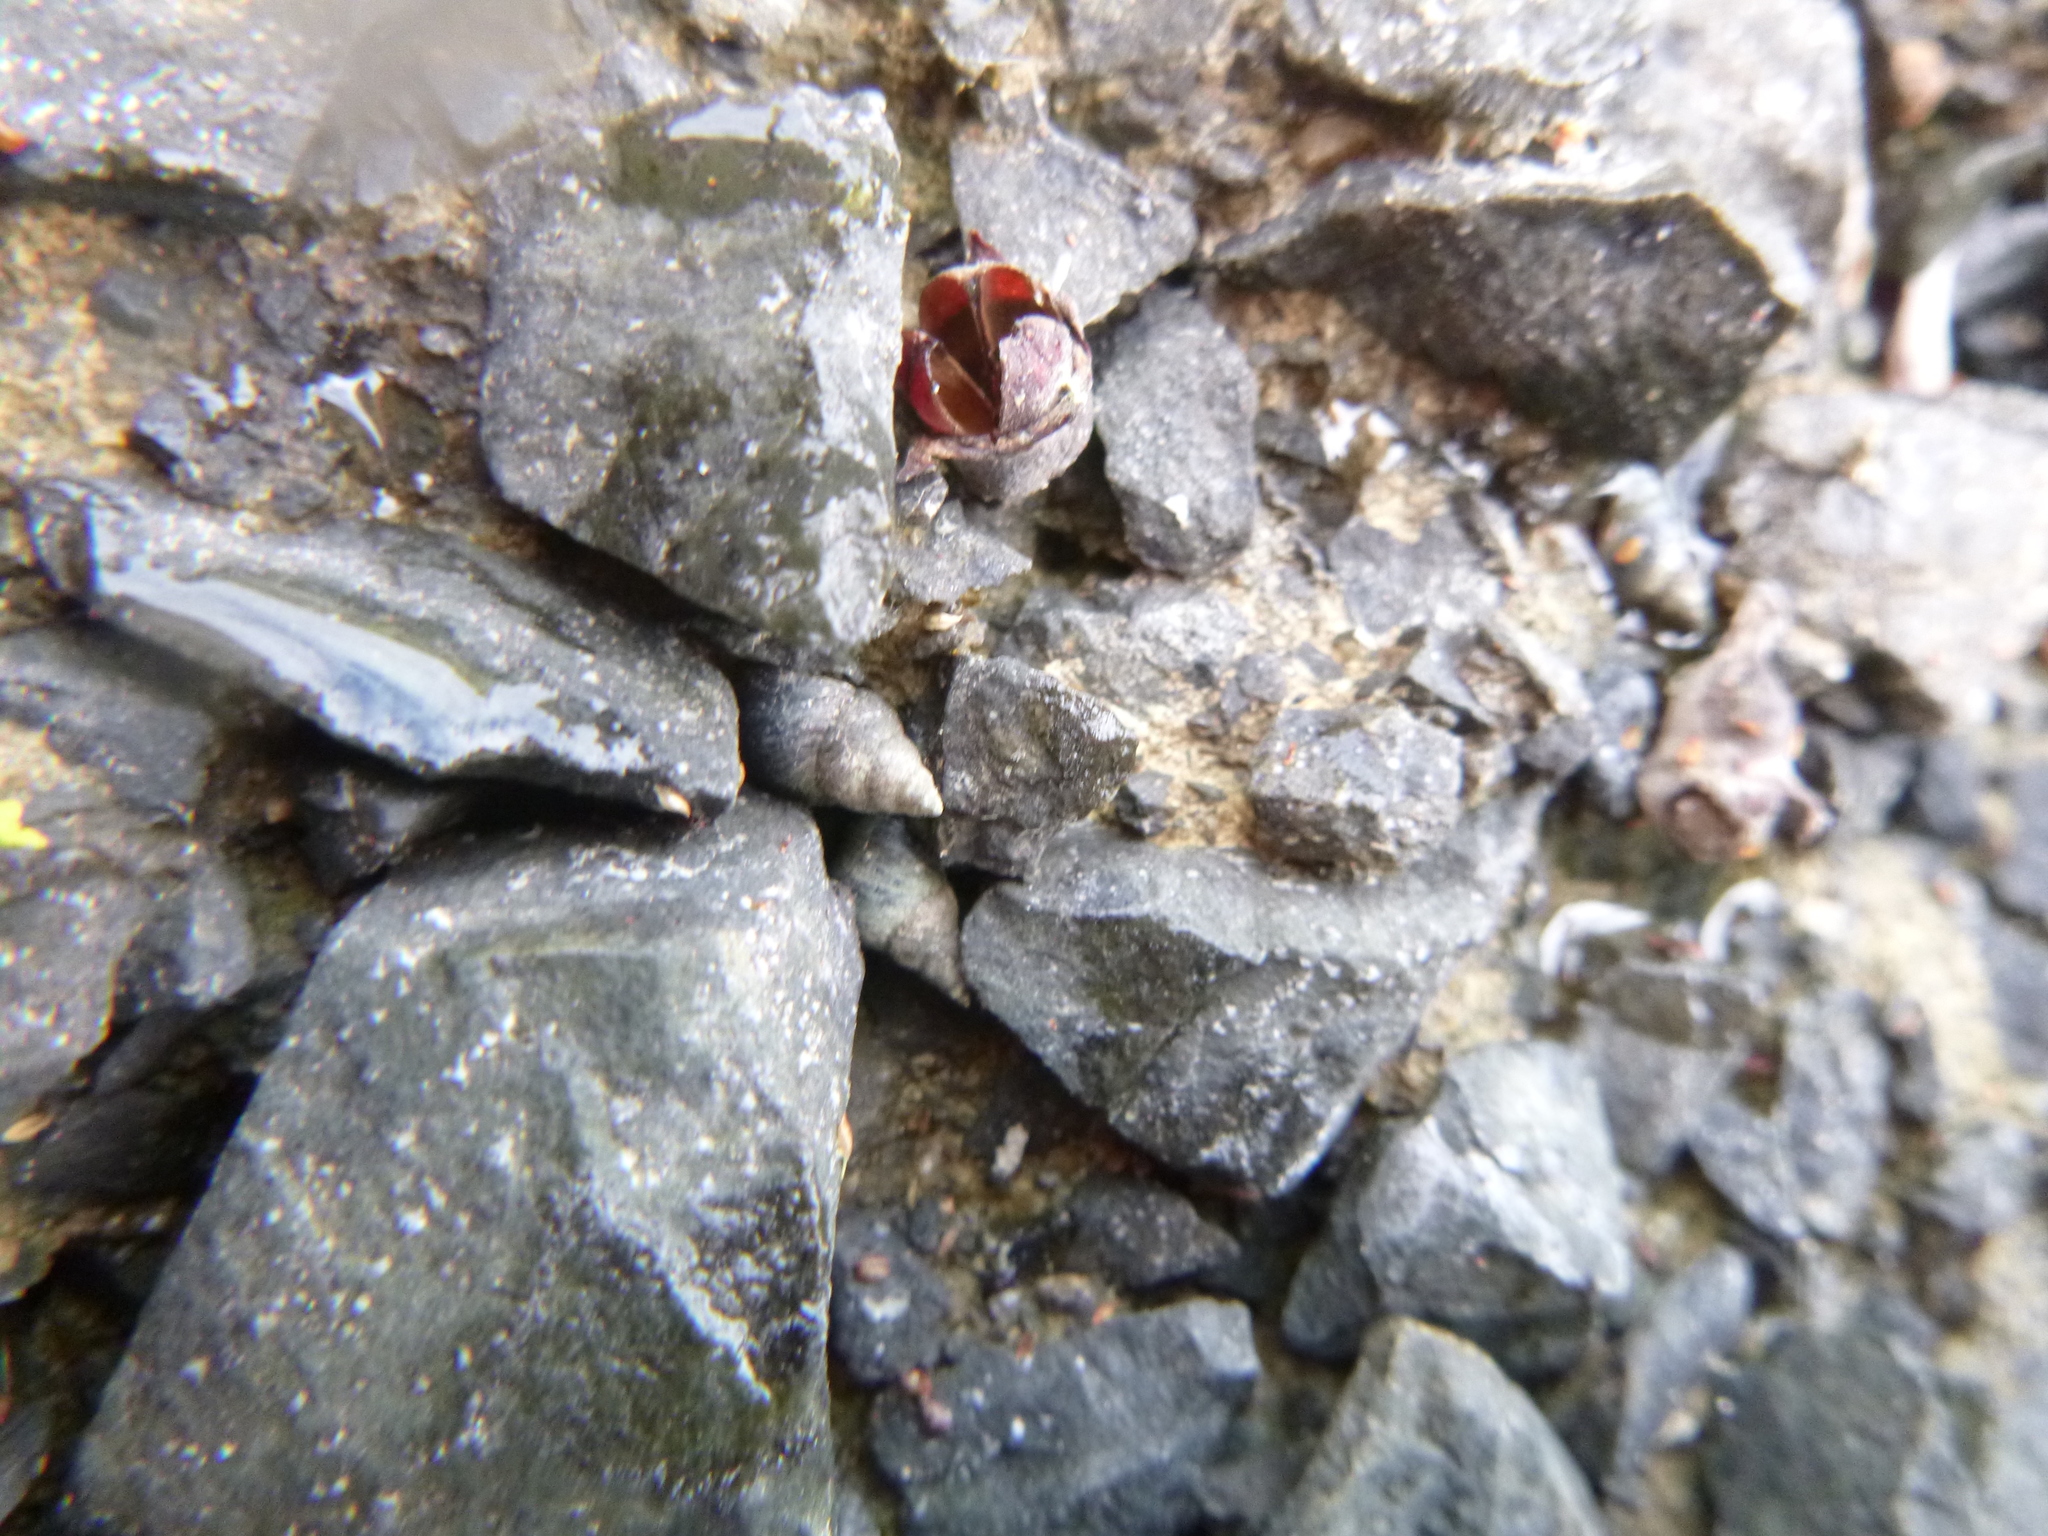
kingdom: Animalia
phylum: Mollusca
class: Gastropoda
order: Littorinimorpha
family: Littorinidae
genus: Austrolittorina
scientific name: Austrolittorina antipodum
